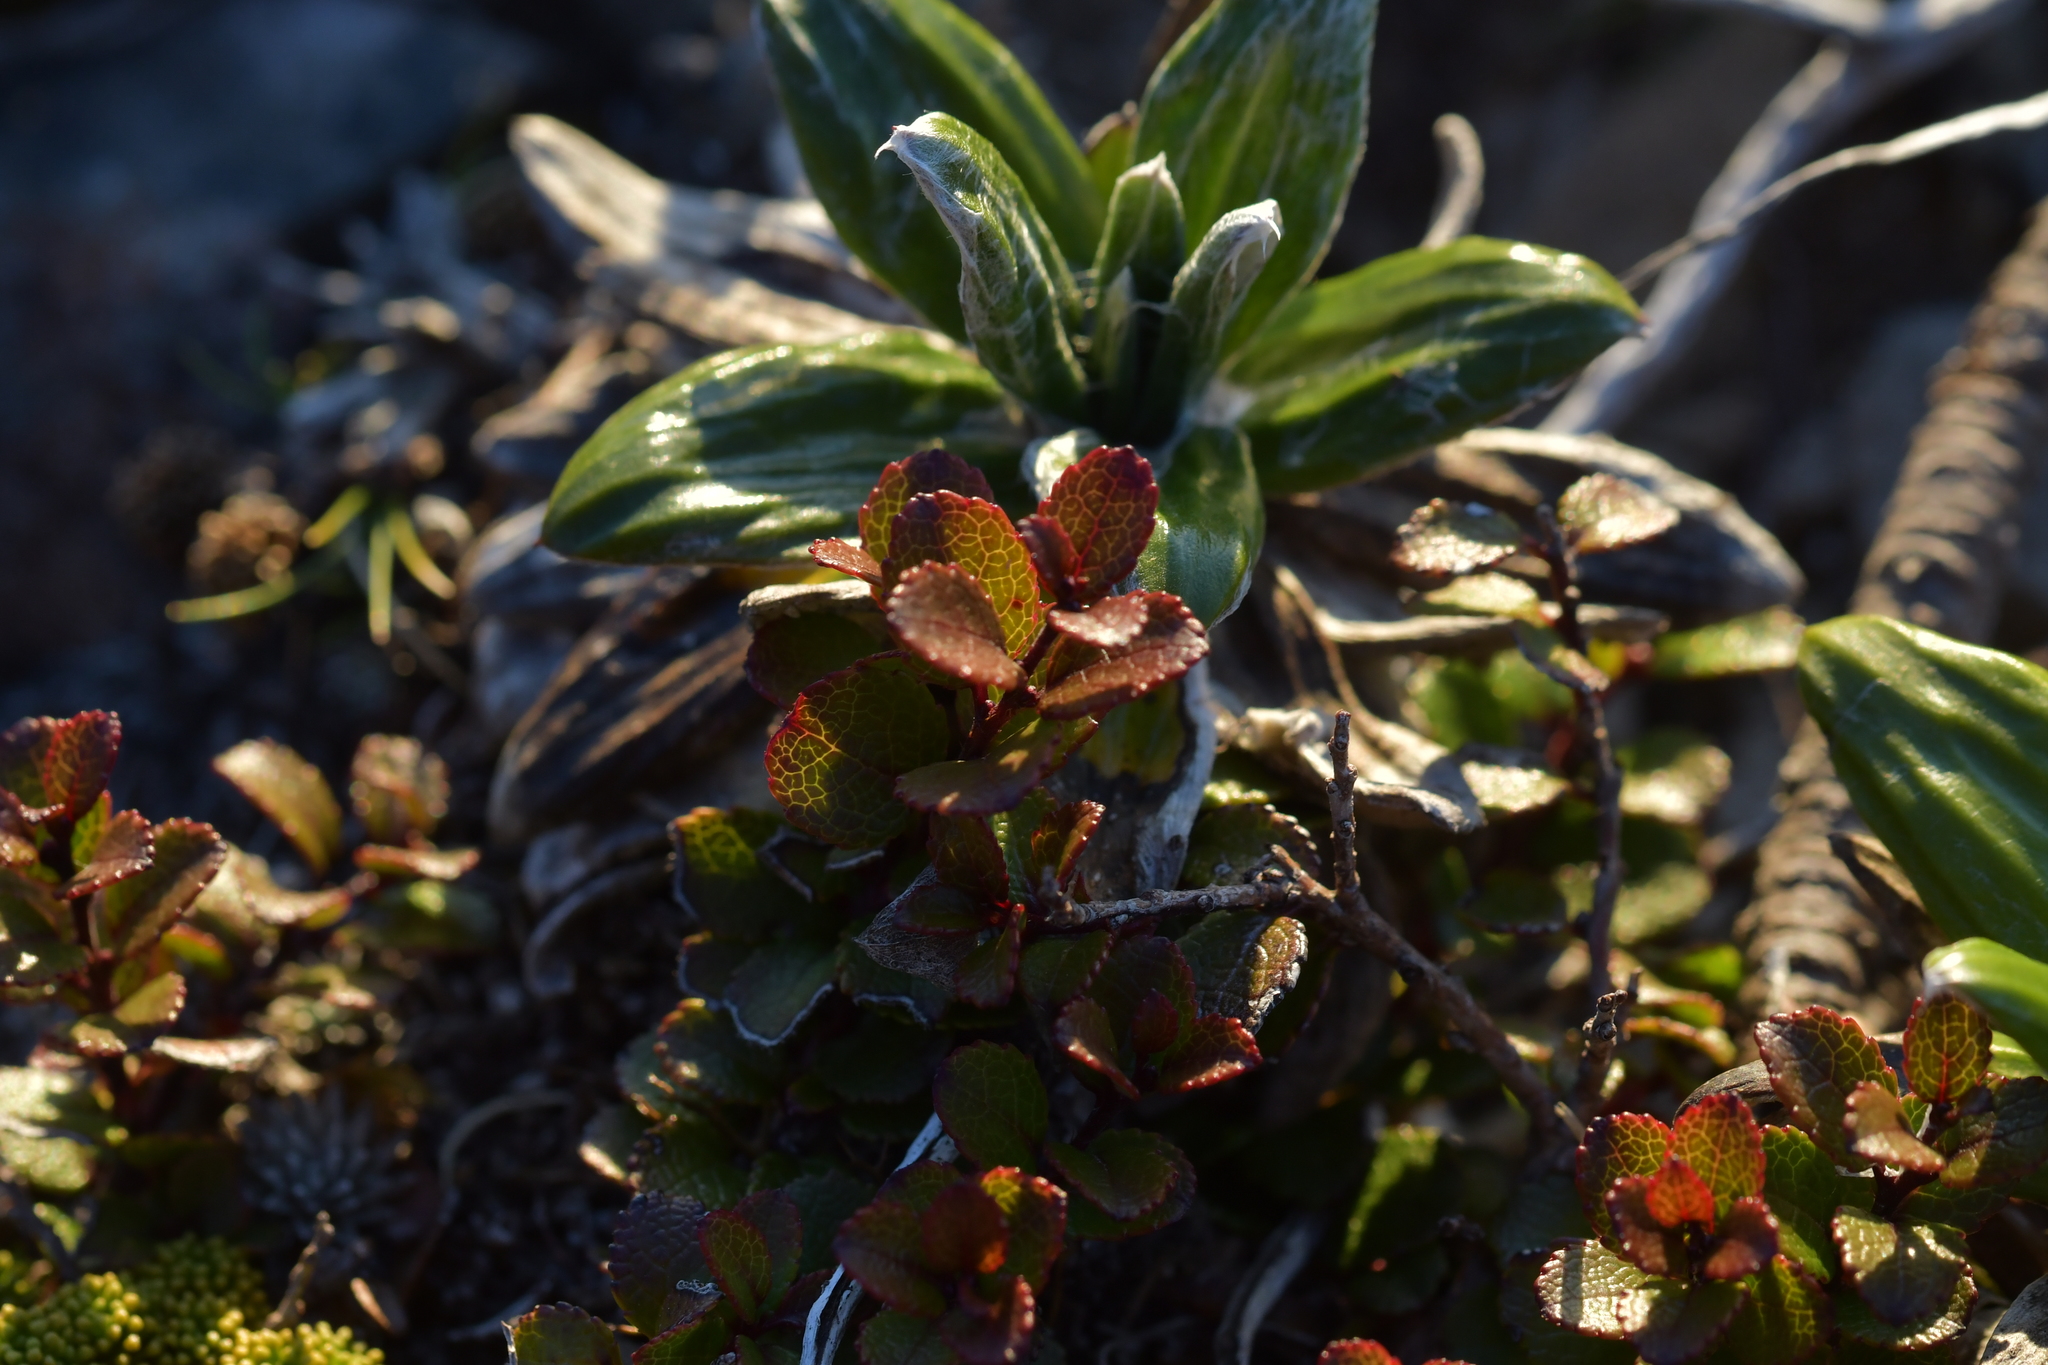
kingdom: Plantae
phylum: Tracheophyta
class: Magnoliopsida
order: Ericales
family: Ericaceae
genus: Gaultheria
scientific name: Gaultheria depressa
